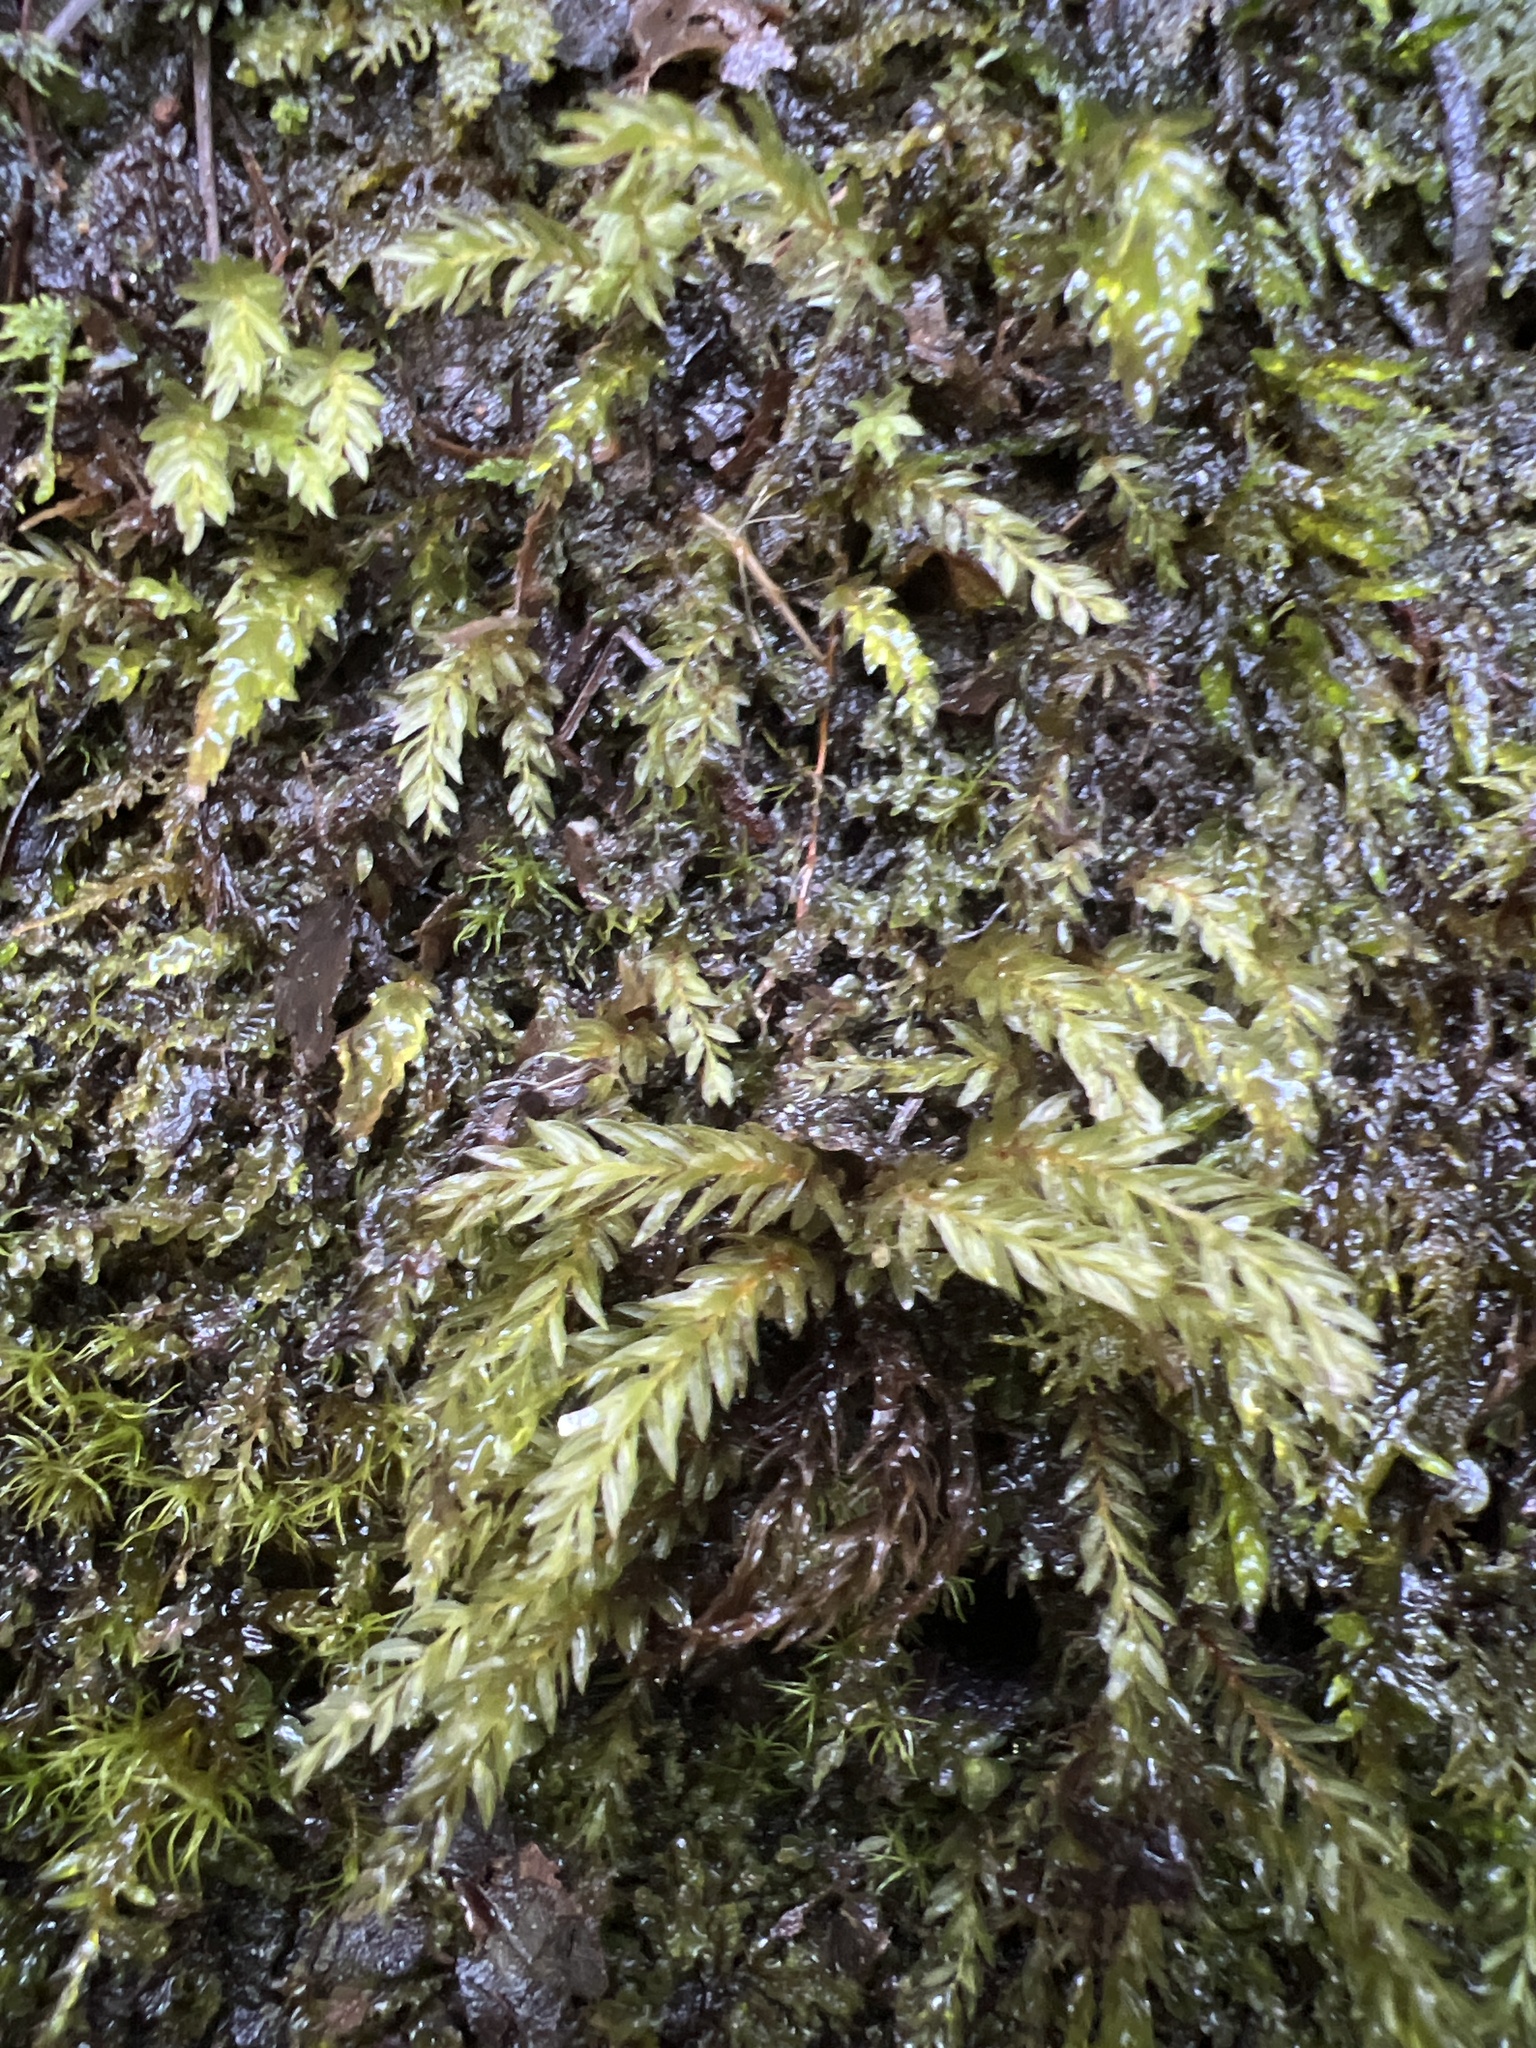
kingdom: Plantae
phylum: Bryophyta
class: Bryopsida
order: Bryales
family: Mniaceae
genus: Mnium
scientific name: Mnium hornum
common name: Swan's-neck leafy moss
